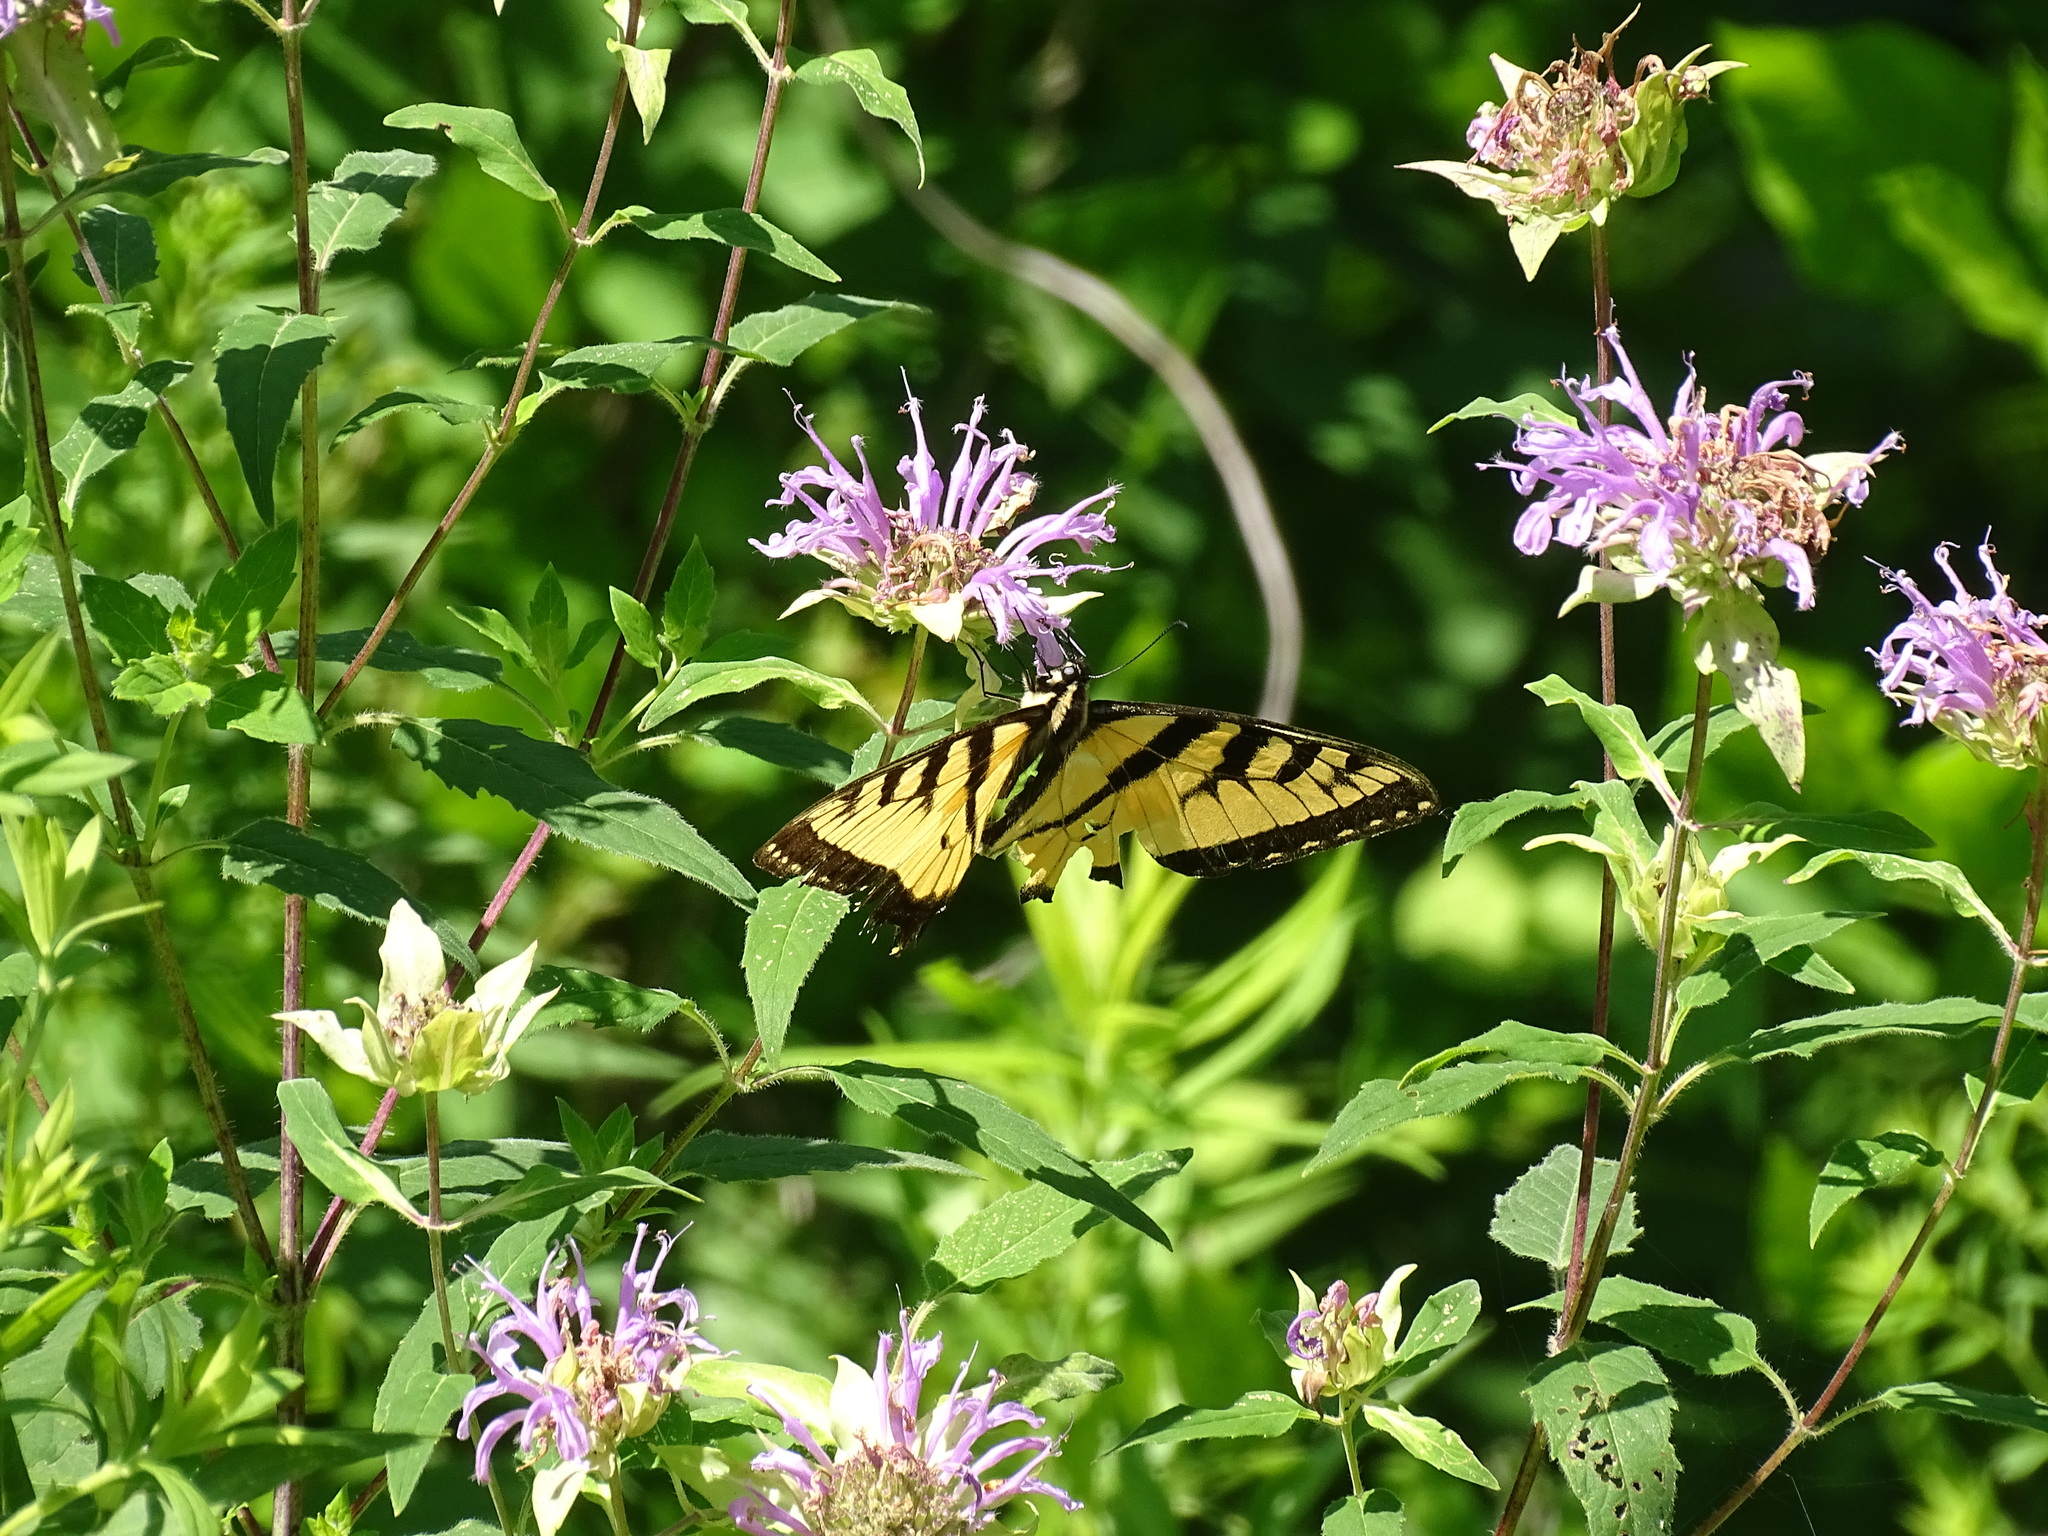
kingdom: Animalia
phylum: Arthropoda
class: Insecta
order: Lepidoptera
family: Papilionidae
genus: Pterourus
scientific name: Pterourus
